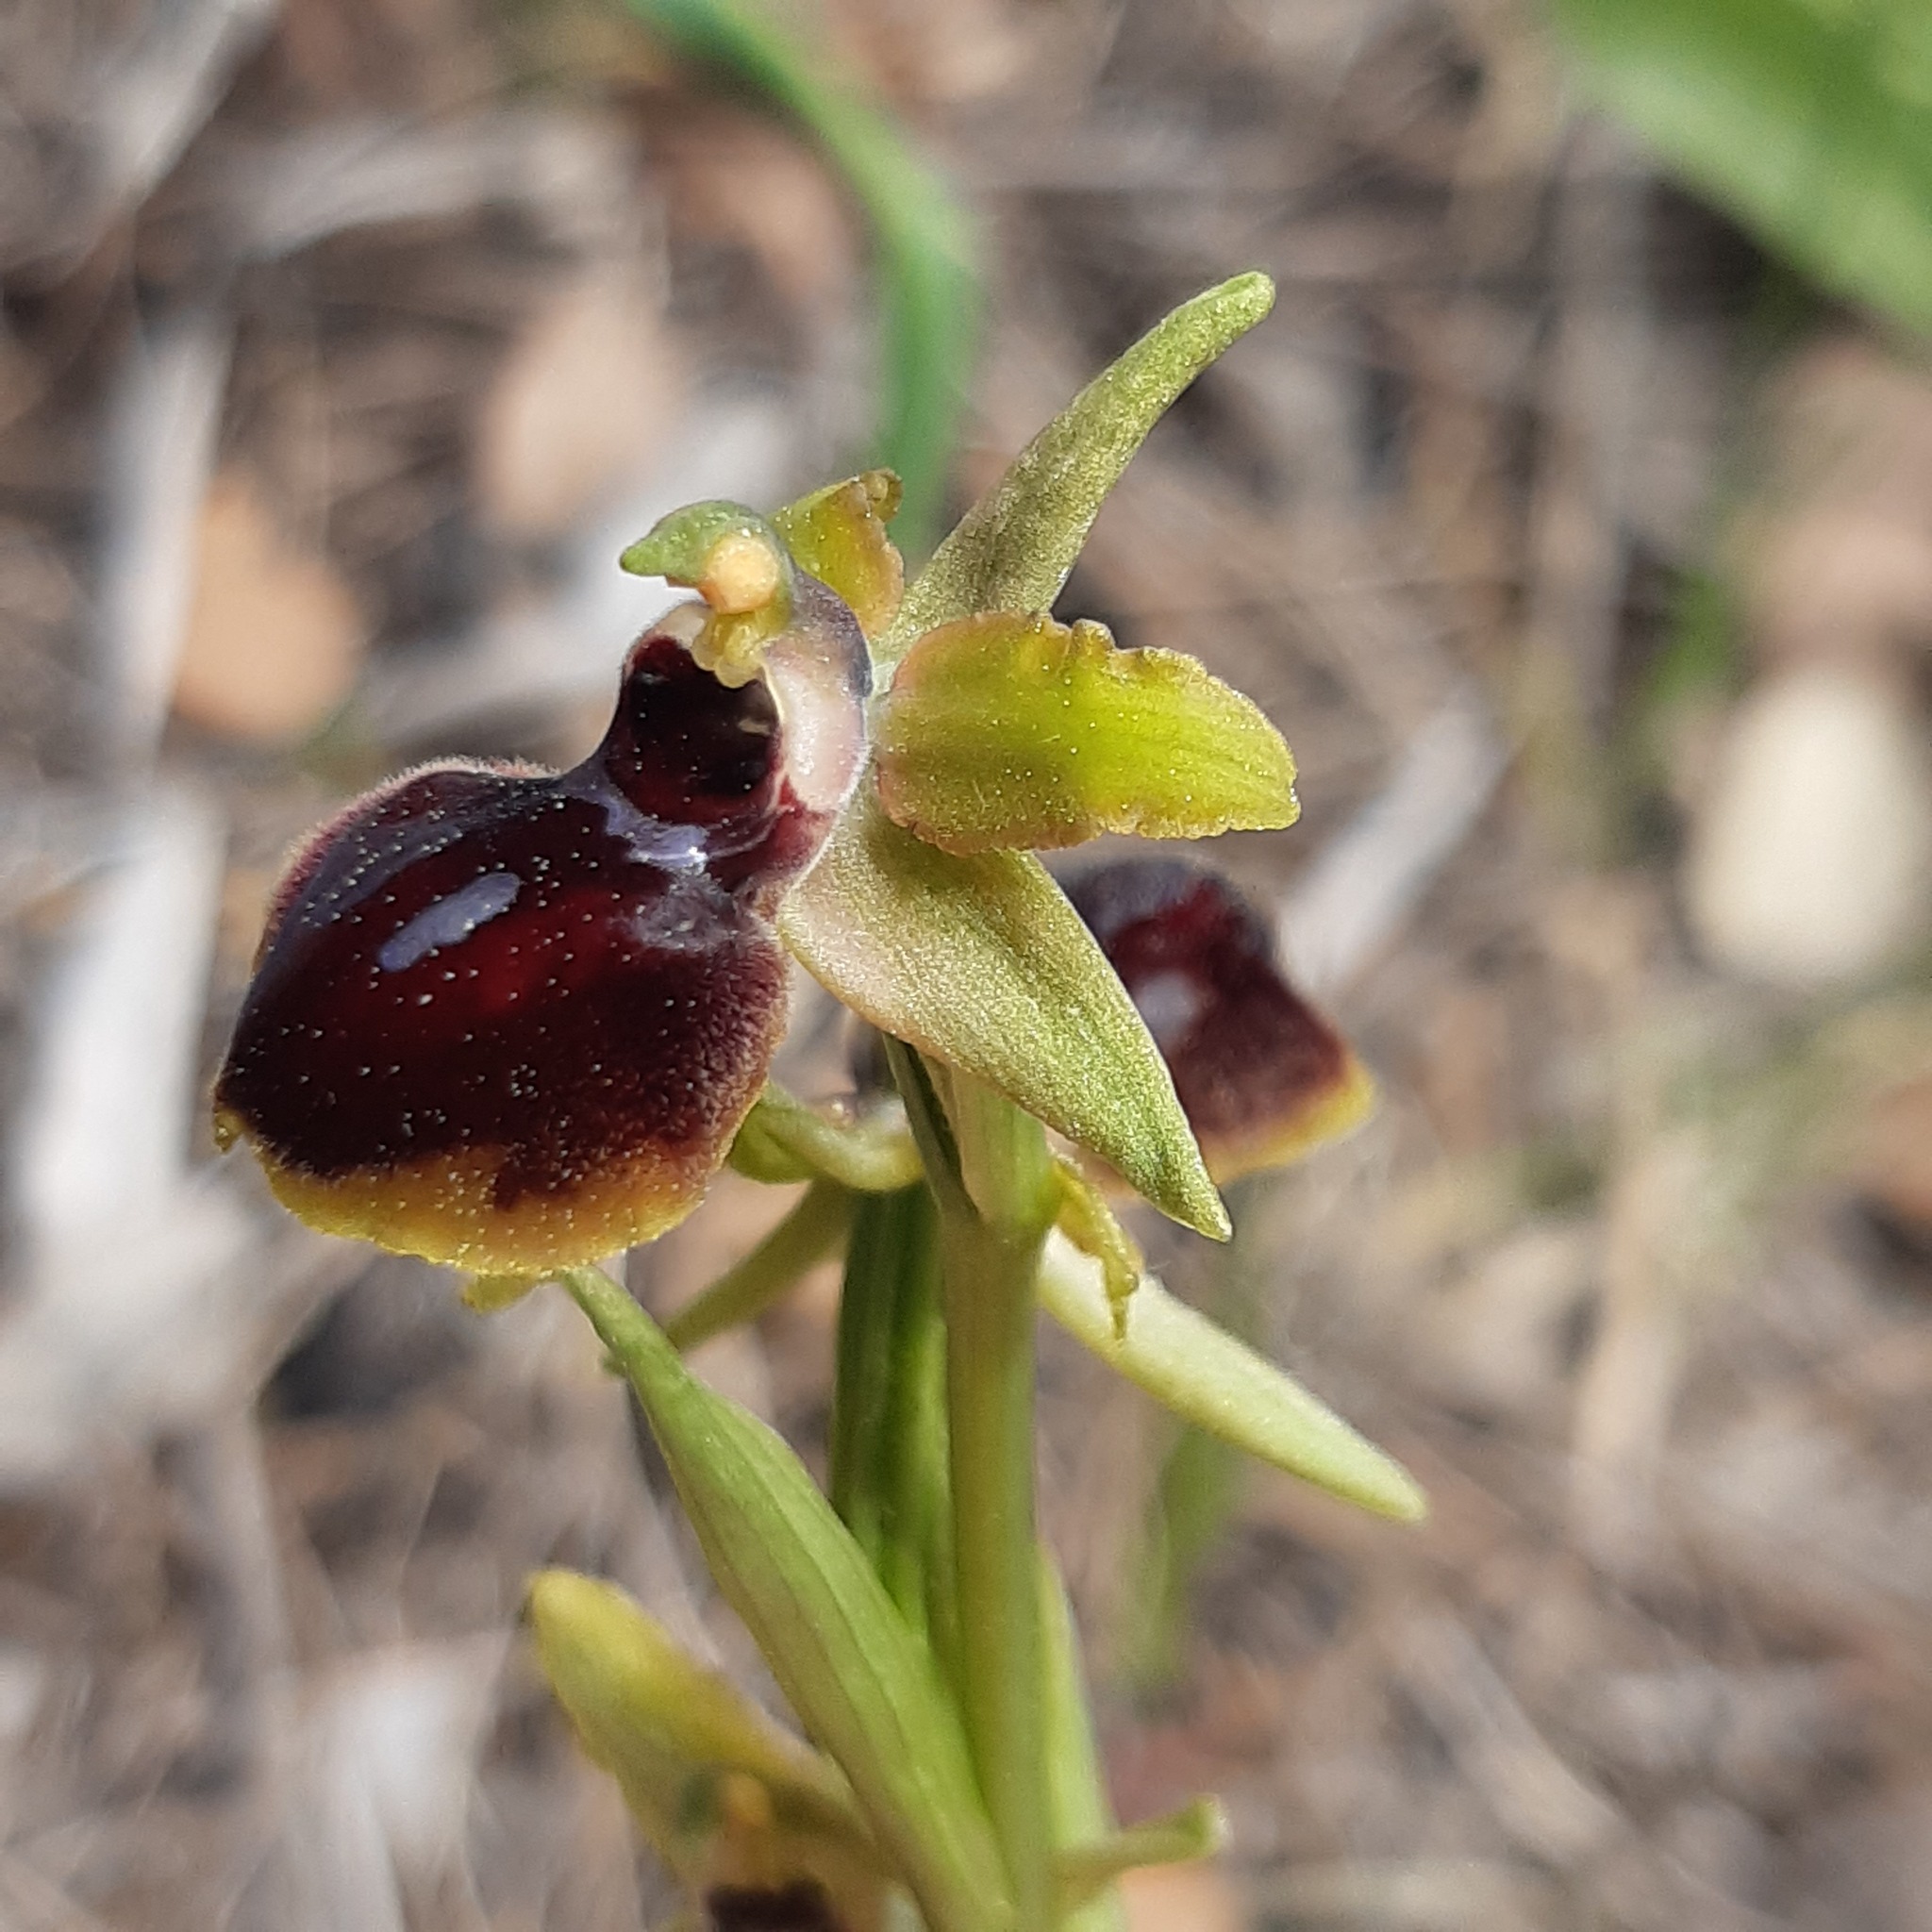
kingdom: Plantae
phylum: Tracheophyta
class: Liliopsida
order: Asparagales
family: Orchidaceae
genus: Ophrys
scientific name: Ophrys sphegodes
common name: Early spider-orchid
